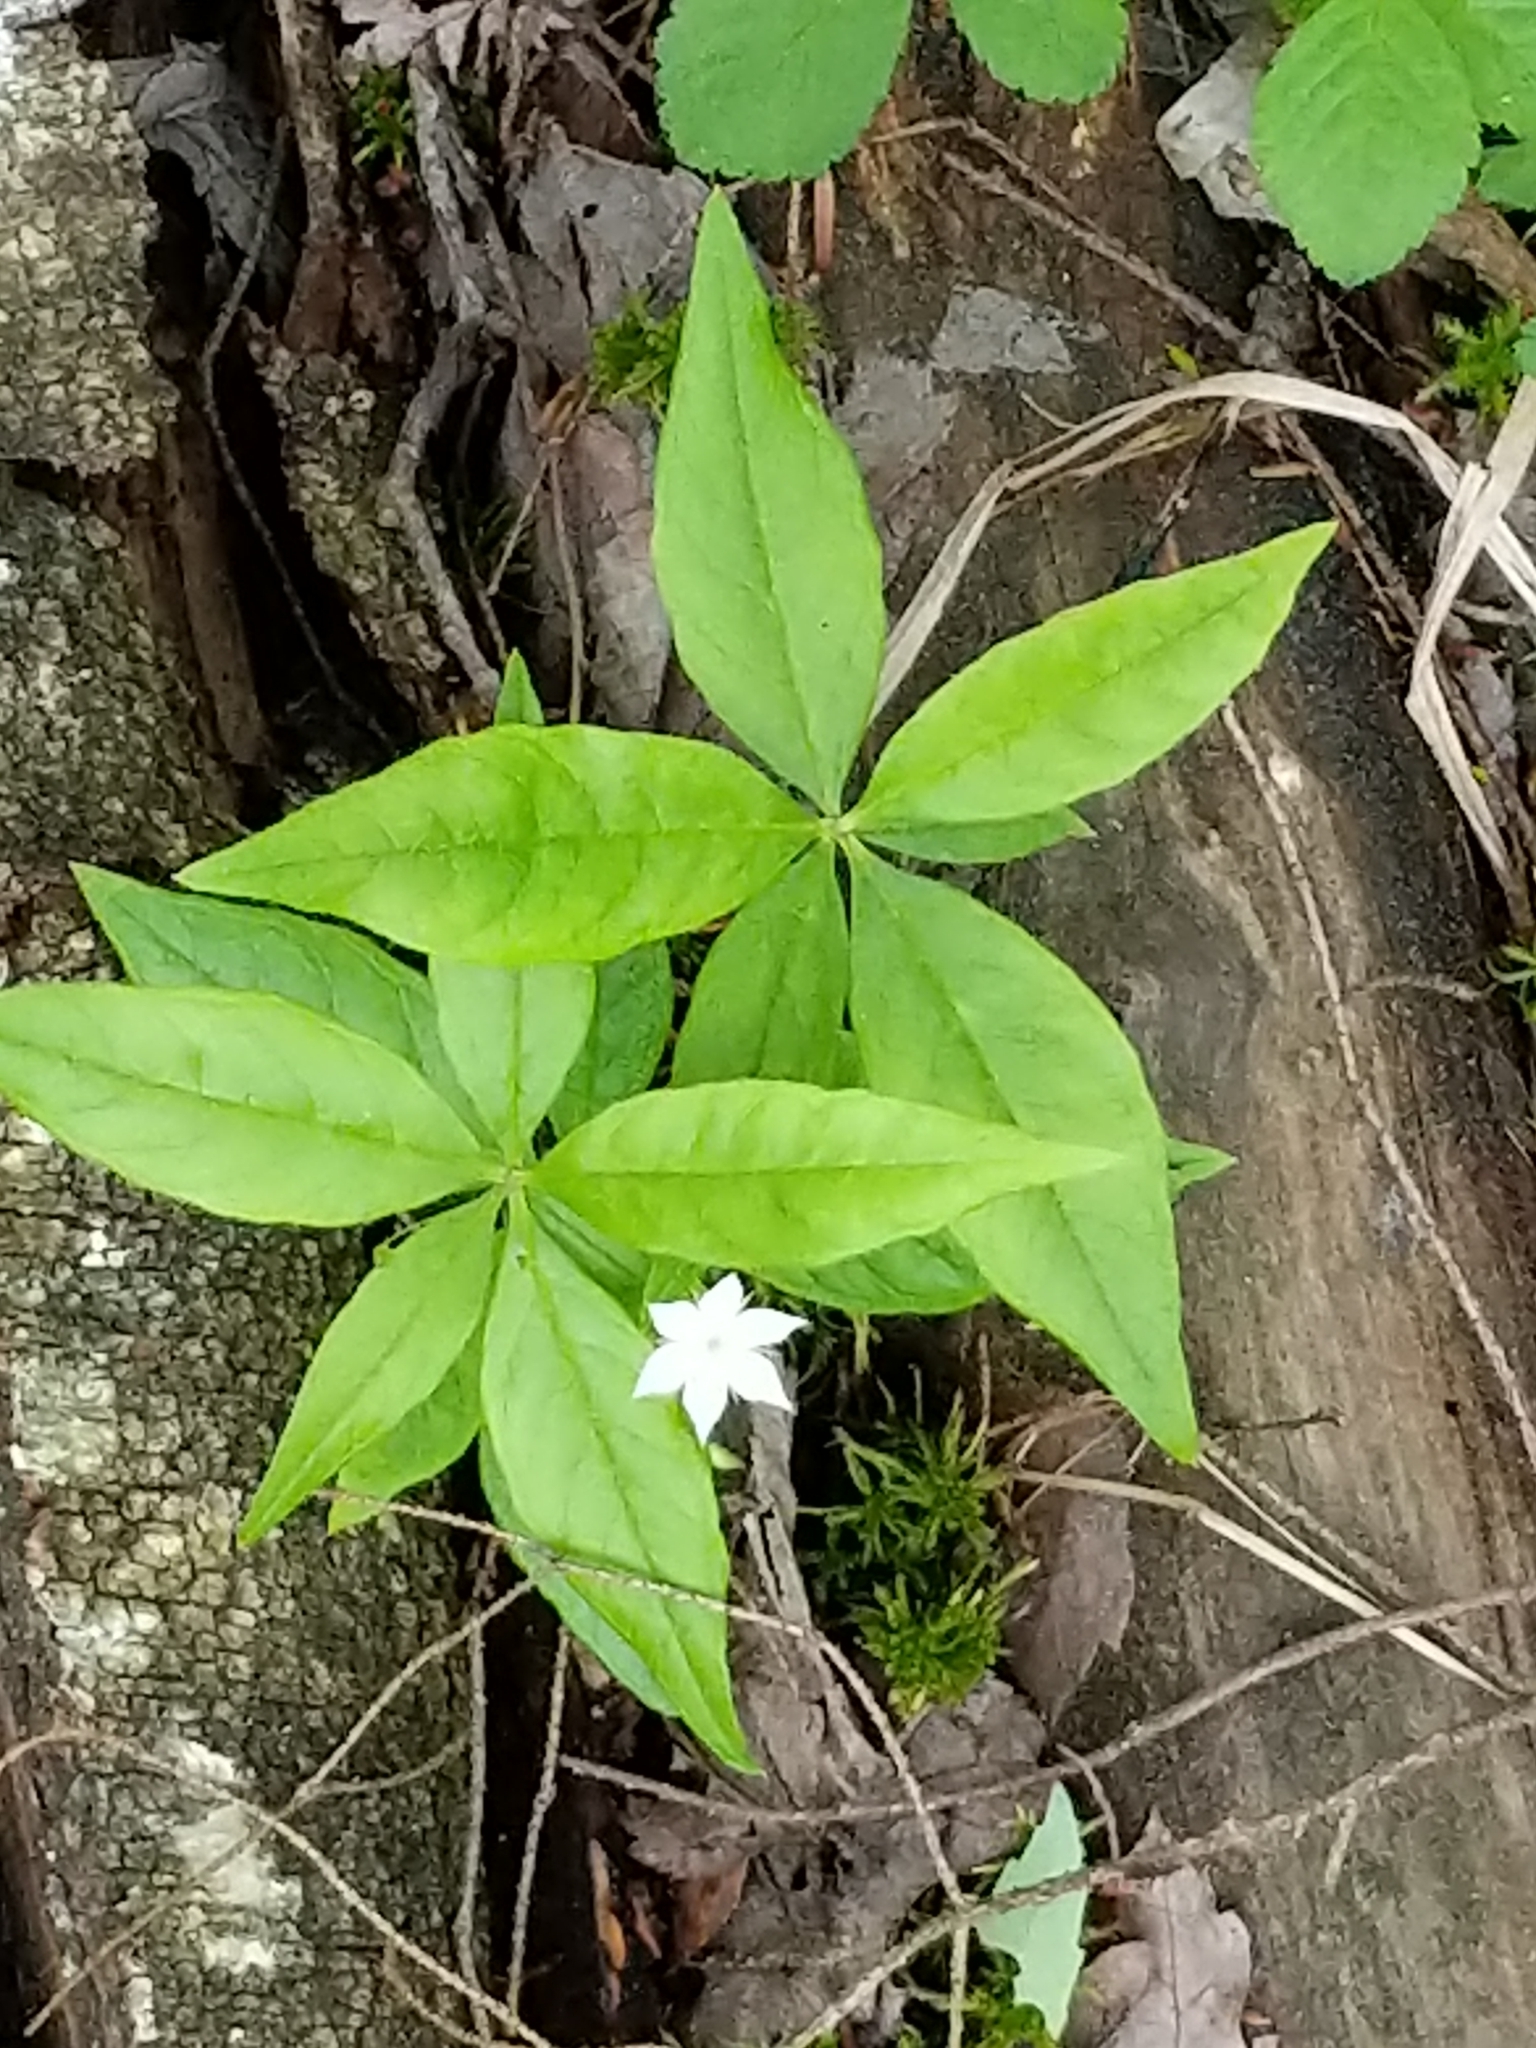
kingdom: Plantae
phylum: Tracheophyta
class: Magnoliopsida
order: Ericales
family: Primulaceae
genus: Lysimachia
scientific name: Lysimachia borealis
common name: American starflower
